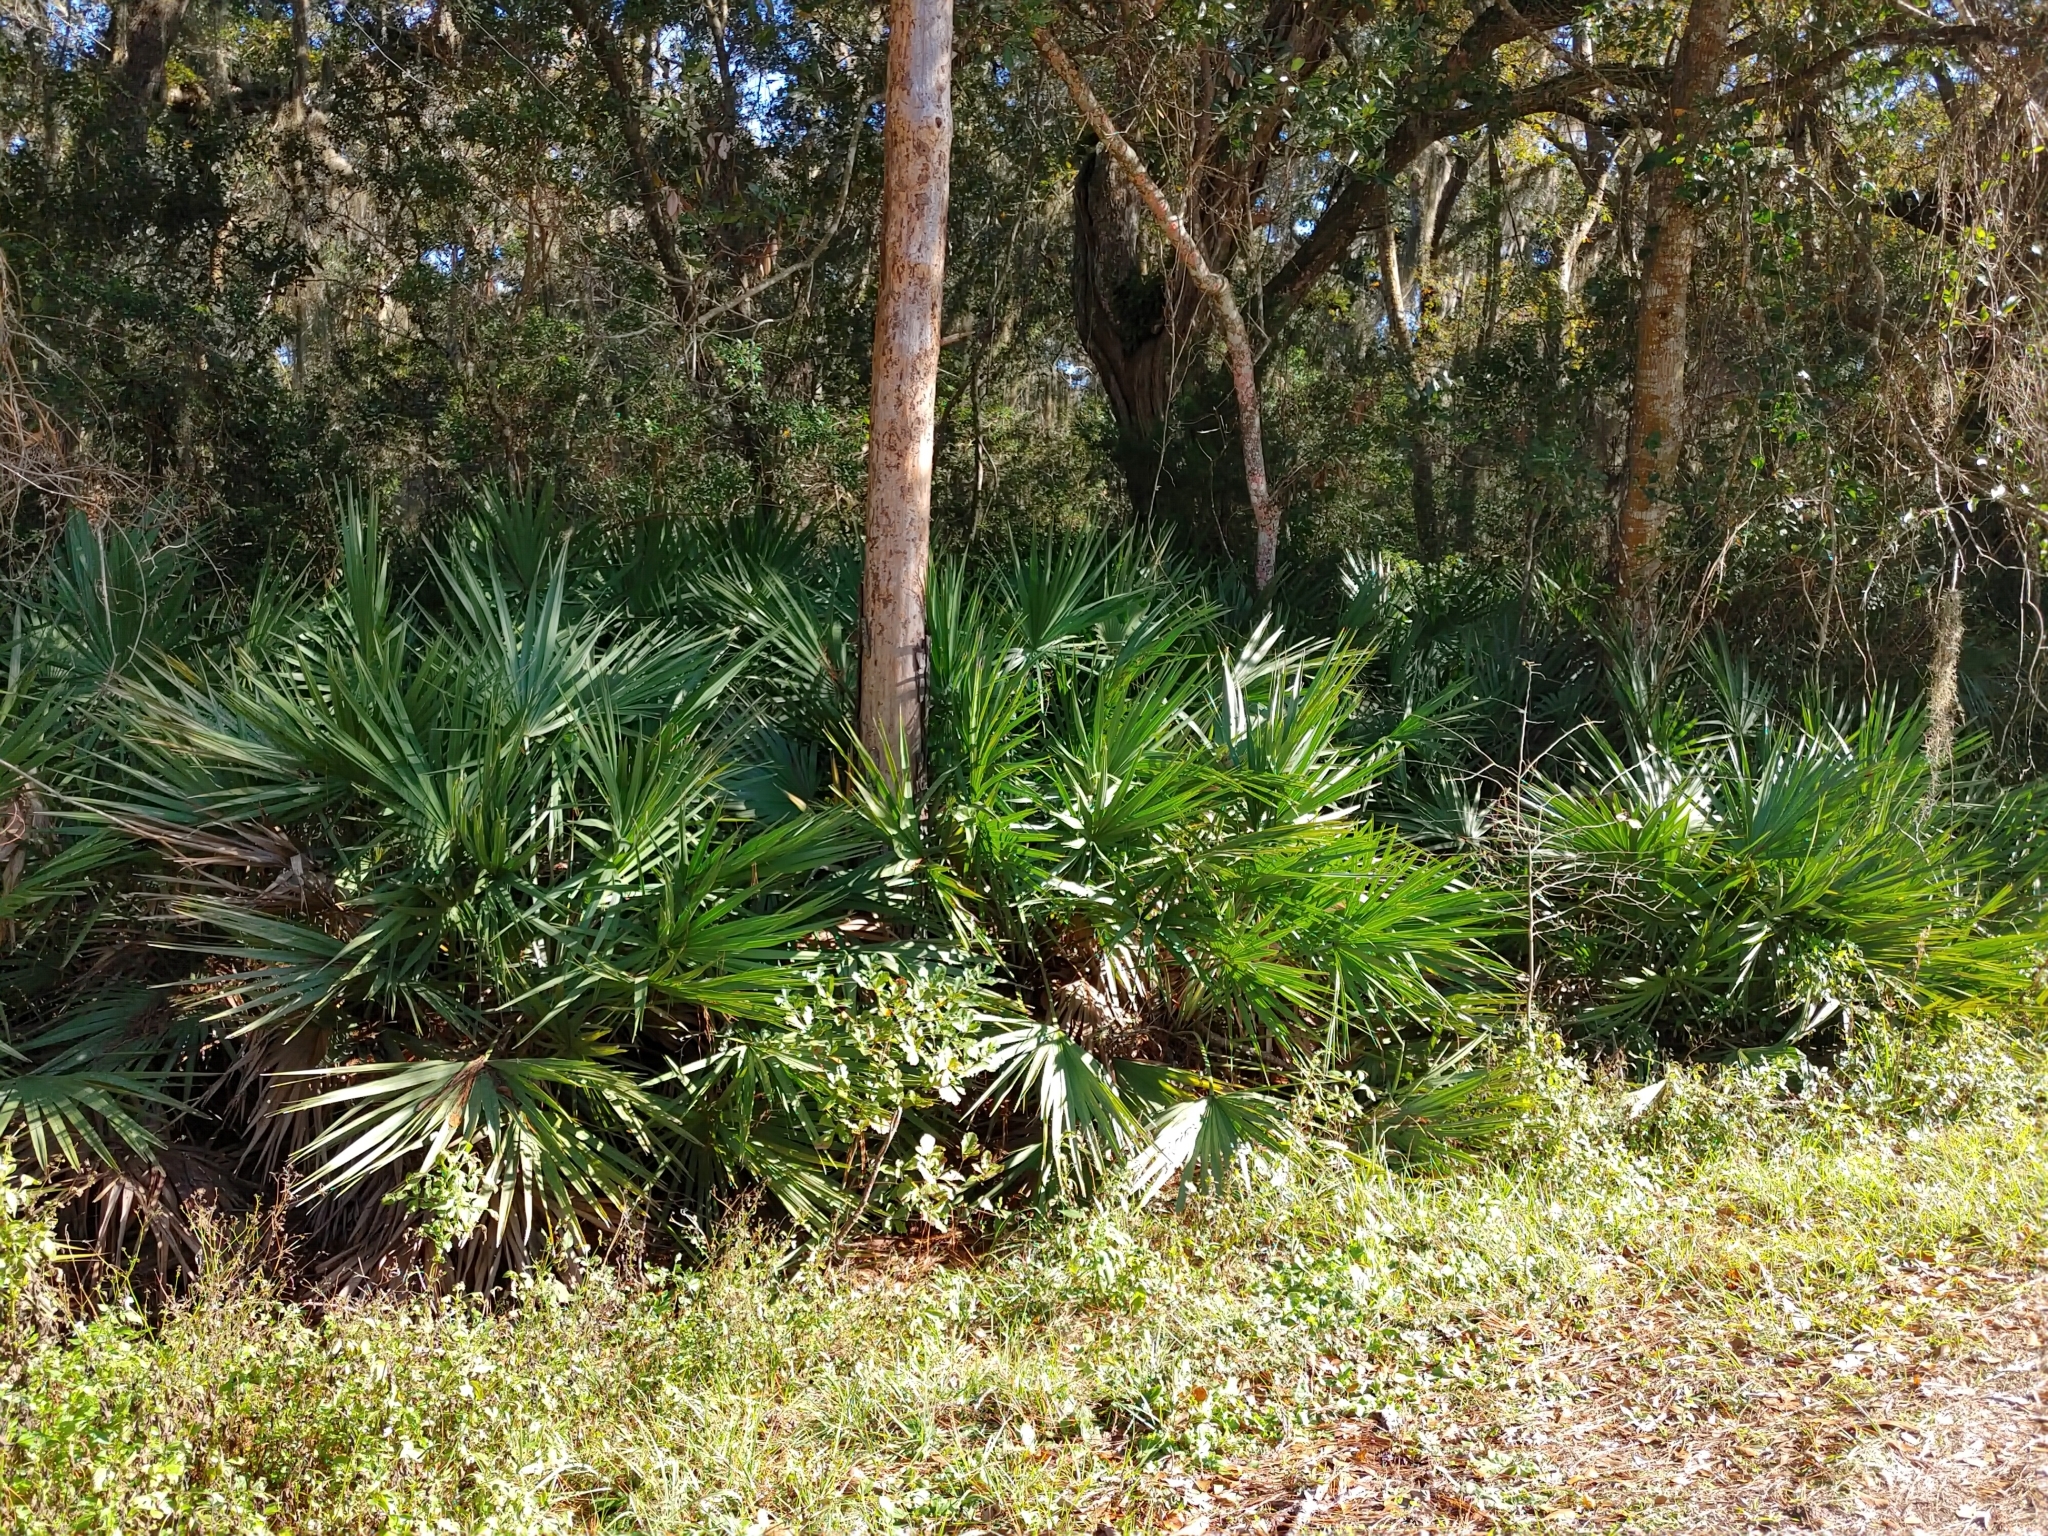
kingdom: Plantae
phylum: Tracheophyta
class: Liliopsida
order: Arecales
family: Arecaceae
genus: Serenoa
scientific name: Serenoa repens
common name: Saw-palmetto
